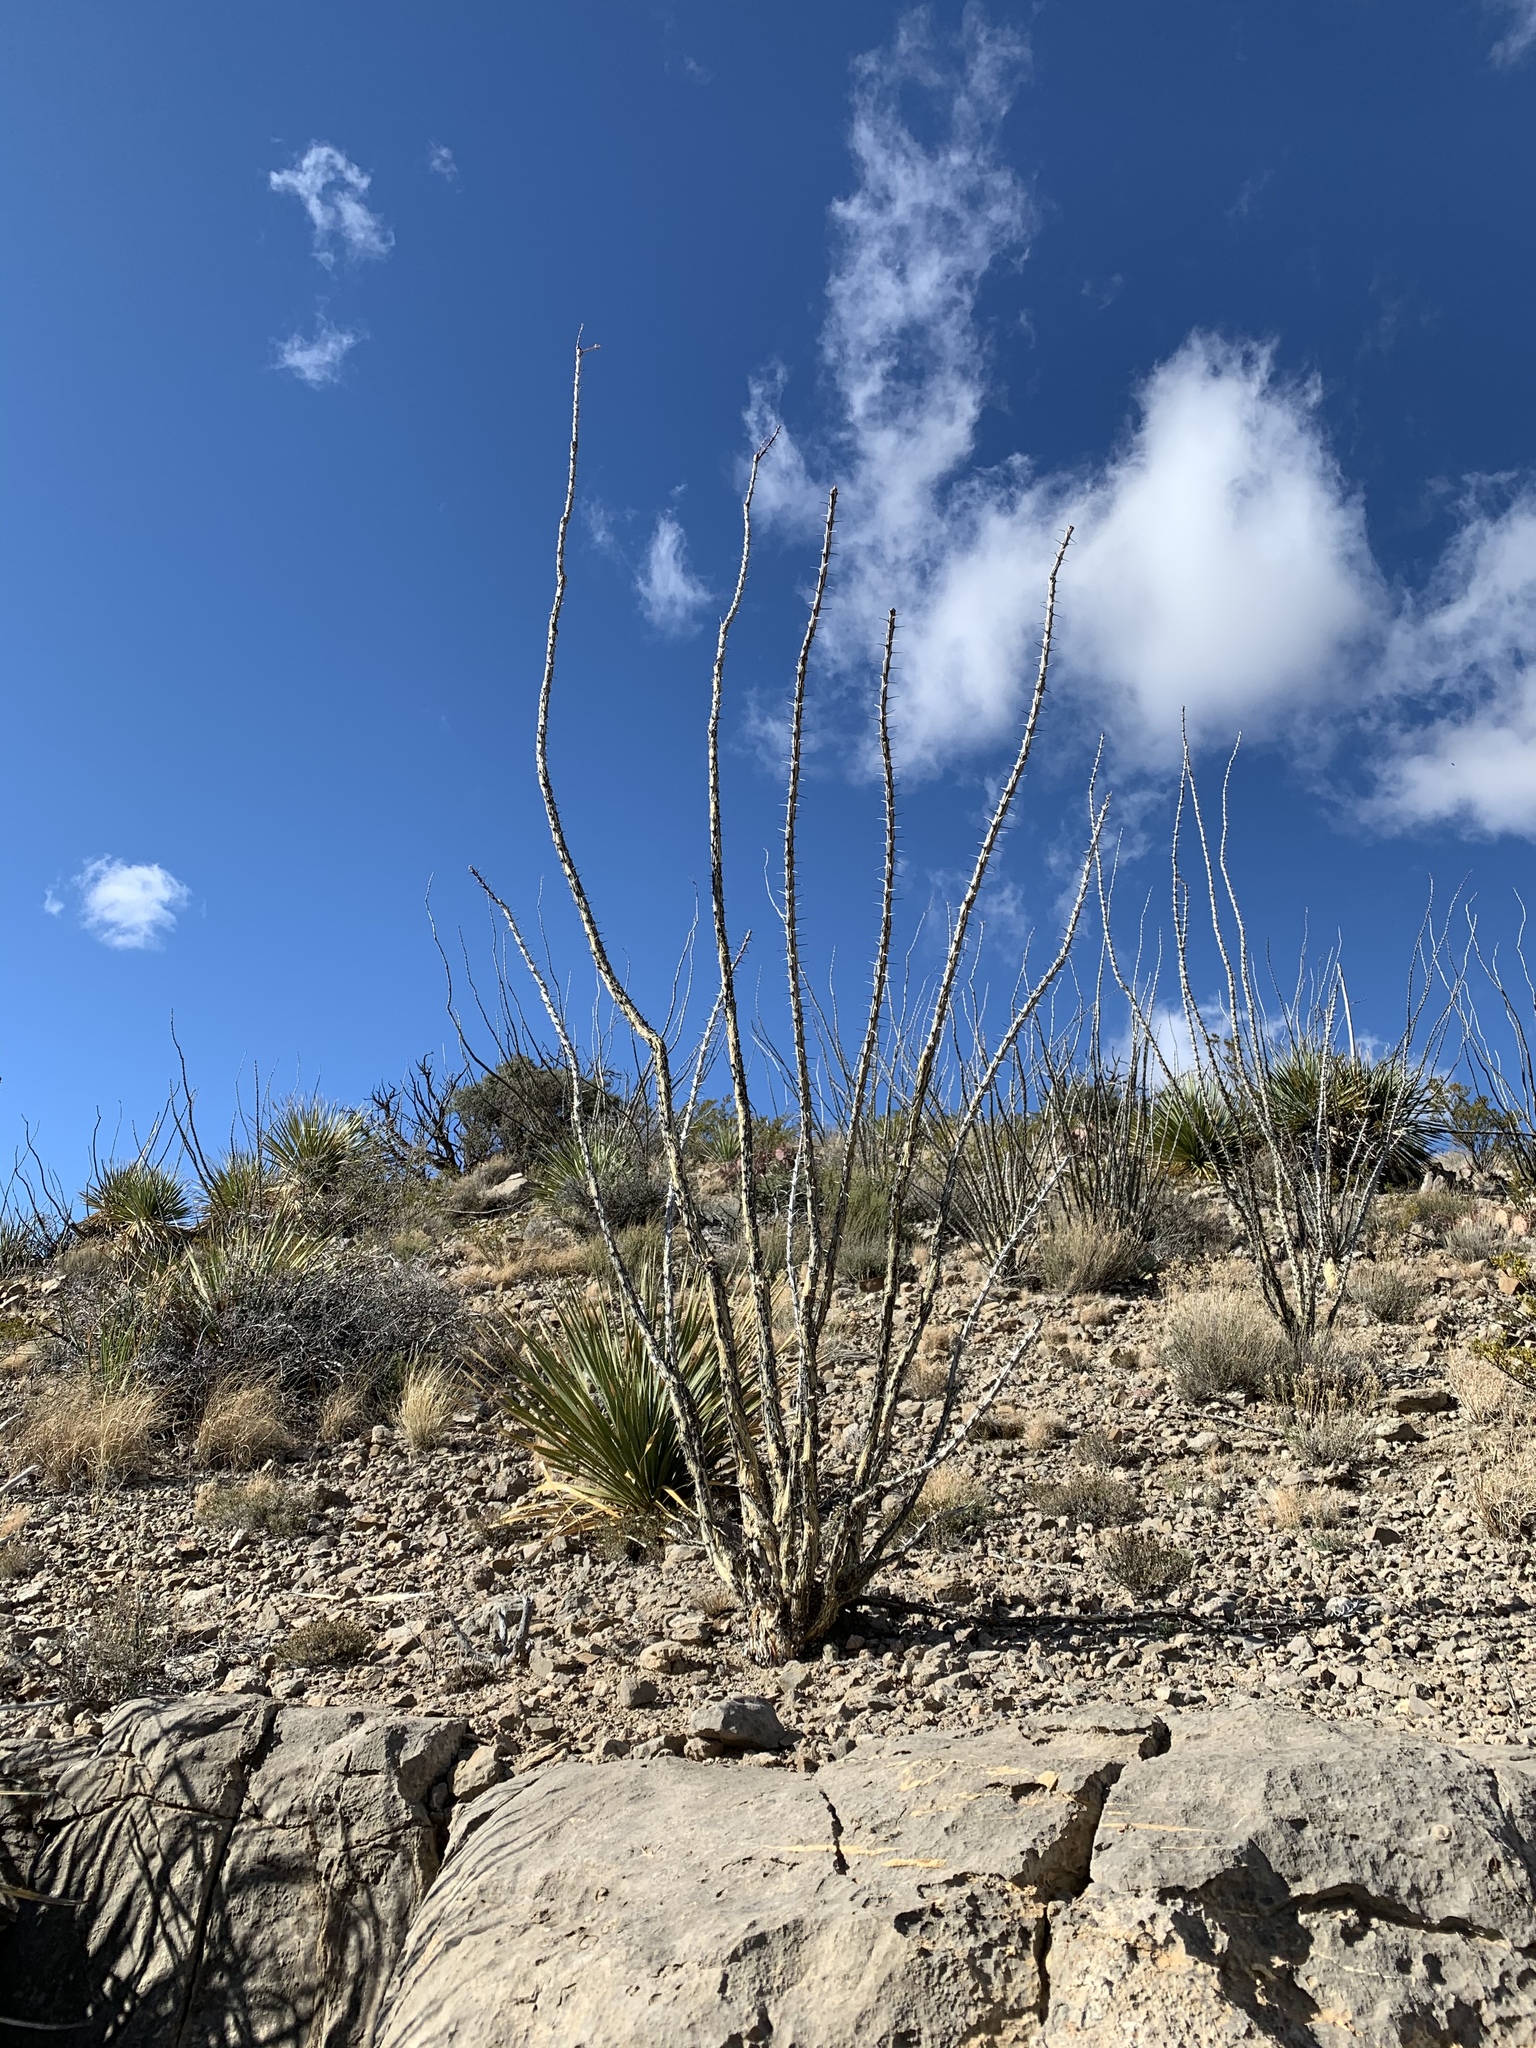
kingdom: Plantae
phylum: Tracheophyta
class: Magnoliopsida
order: Ericales
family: Fouquieriaceae
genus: Fouquieria
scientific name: Fouquieria splendens
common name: Vine-cactus
